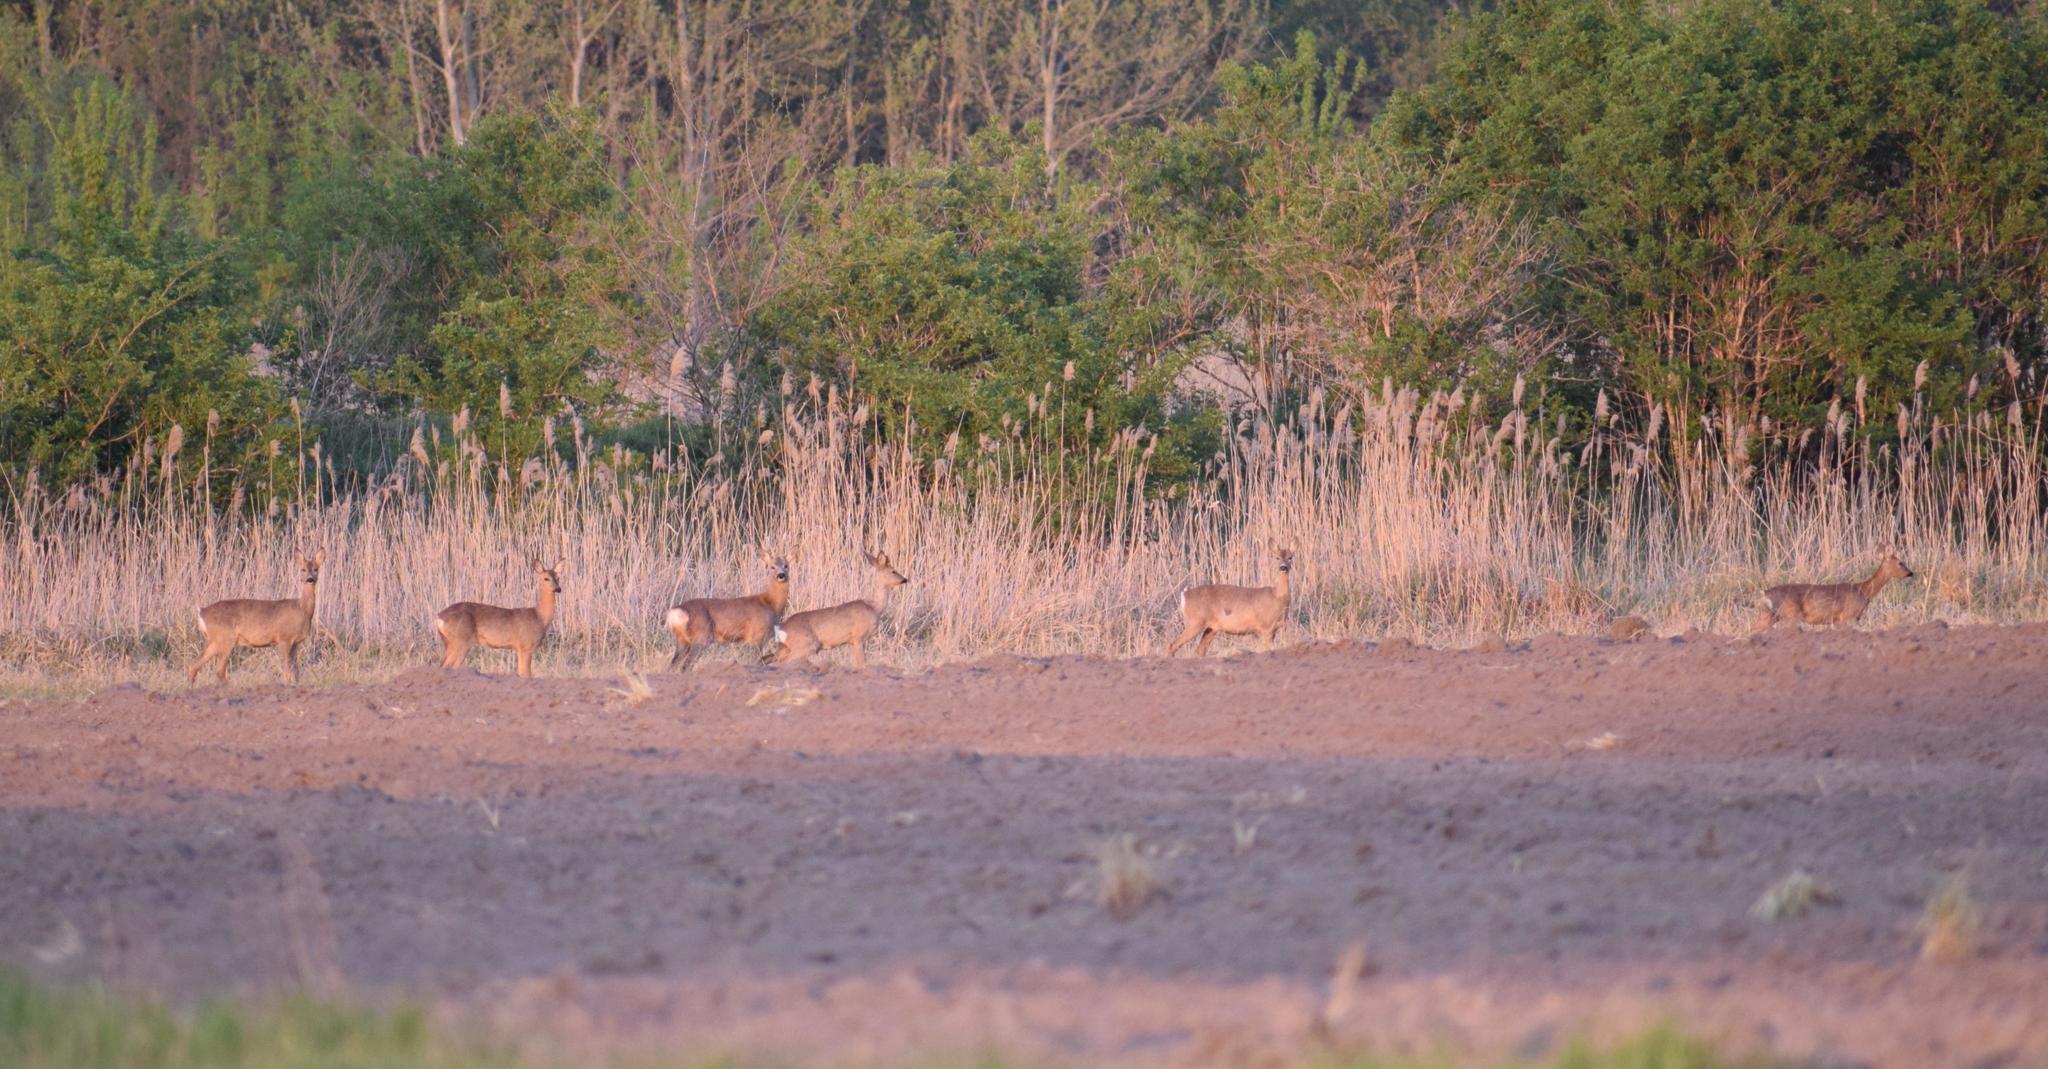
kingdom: Animalia
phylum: Chordata
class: Mammalia
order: Artiodactyla
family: Cervidae
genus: Capreolus
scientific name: Capreolus capreolus
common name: Western roe deer
